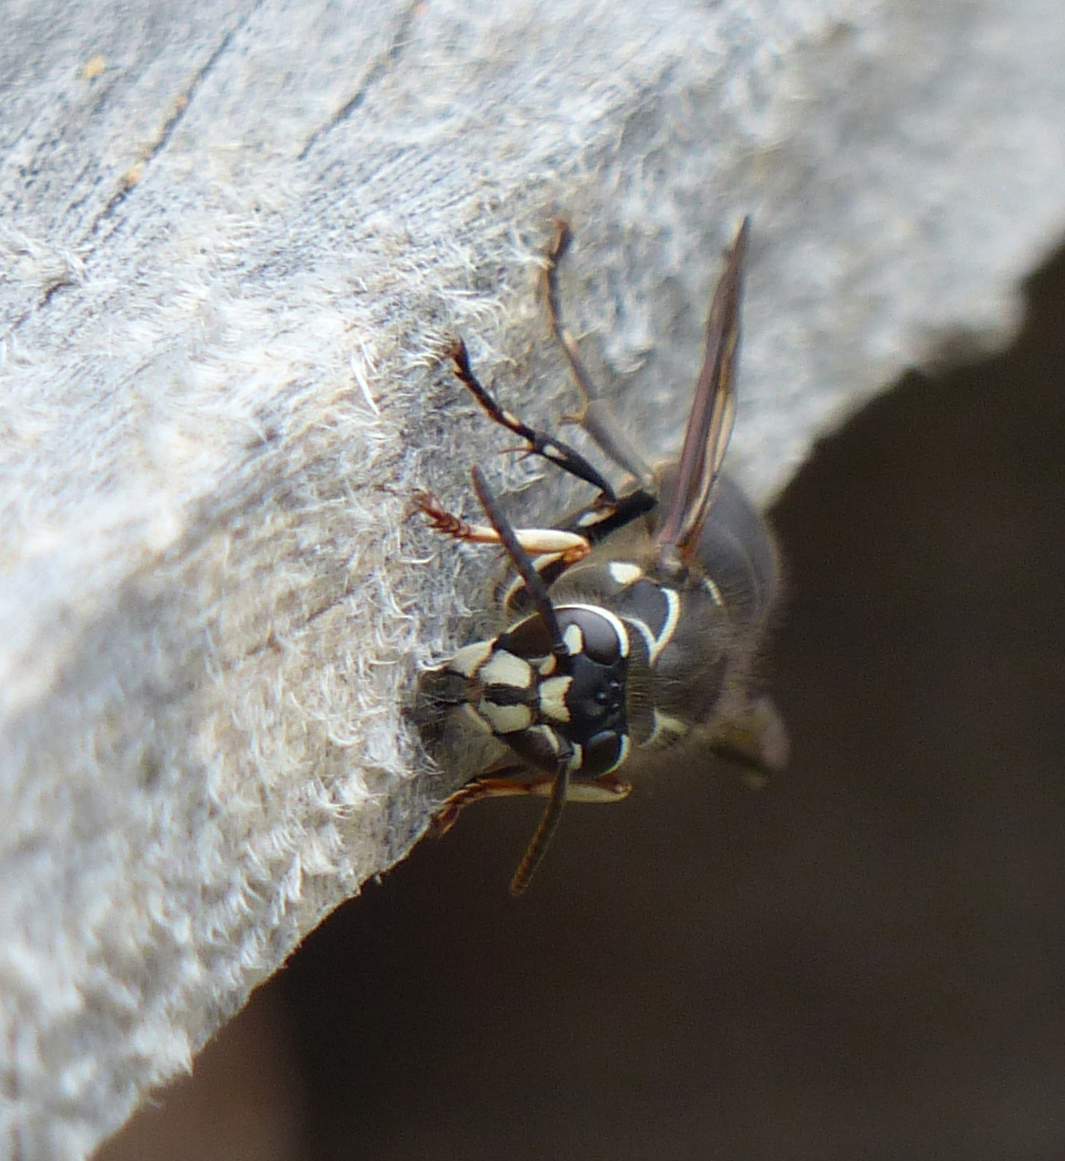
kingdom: Animalia
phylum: Arthropoda
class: Insecta
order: Hymenoptera
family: Vespidae
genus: Dolichovespula
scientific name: Dolichovespula maculata
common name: Bald-faced hornet
